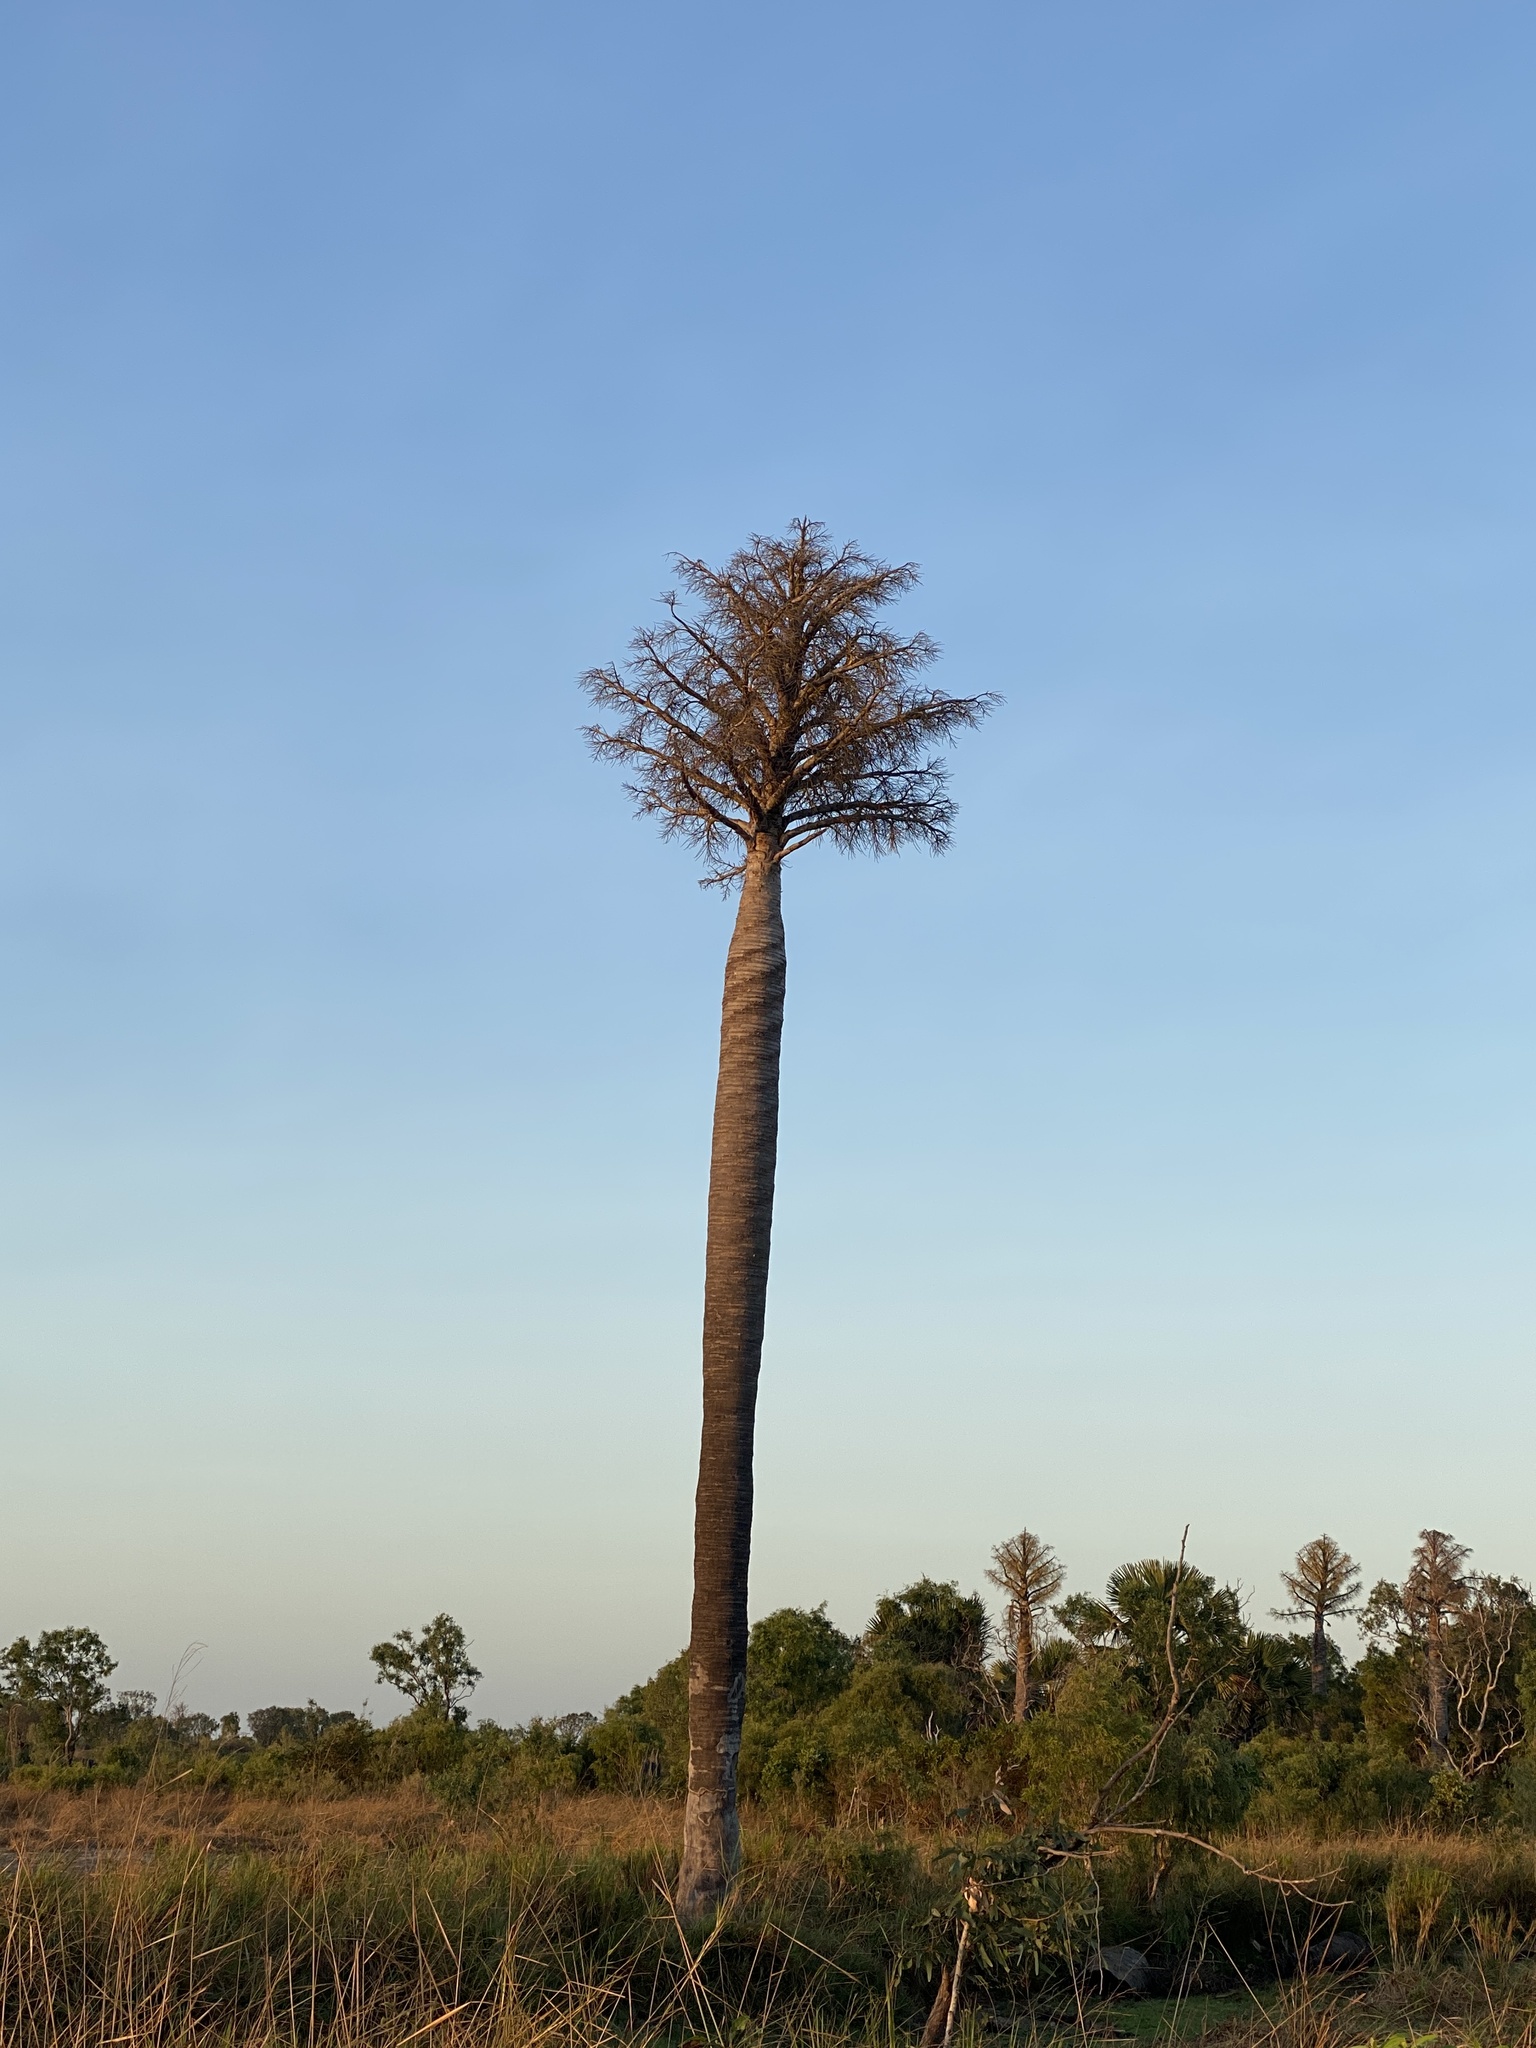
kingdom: Plantae
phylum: Tracheophyta
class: Liliopsida
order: Arecales
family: Arecaceae
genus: Corypha
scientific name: Corypha utan
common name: Buri palm
